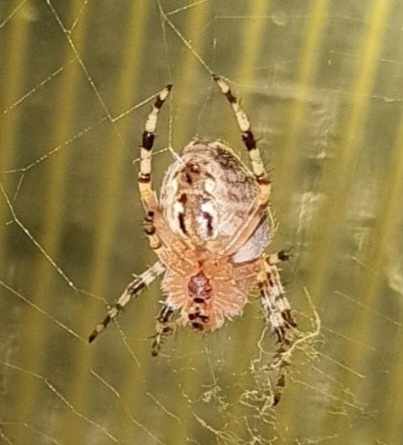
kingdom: Animalia
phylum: Arthropoda
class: Arachnida
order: Araneae
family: Araneidae
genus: Araneus
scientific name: Araneus diadematus
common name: Cross orbweaver
